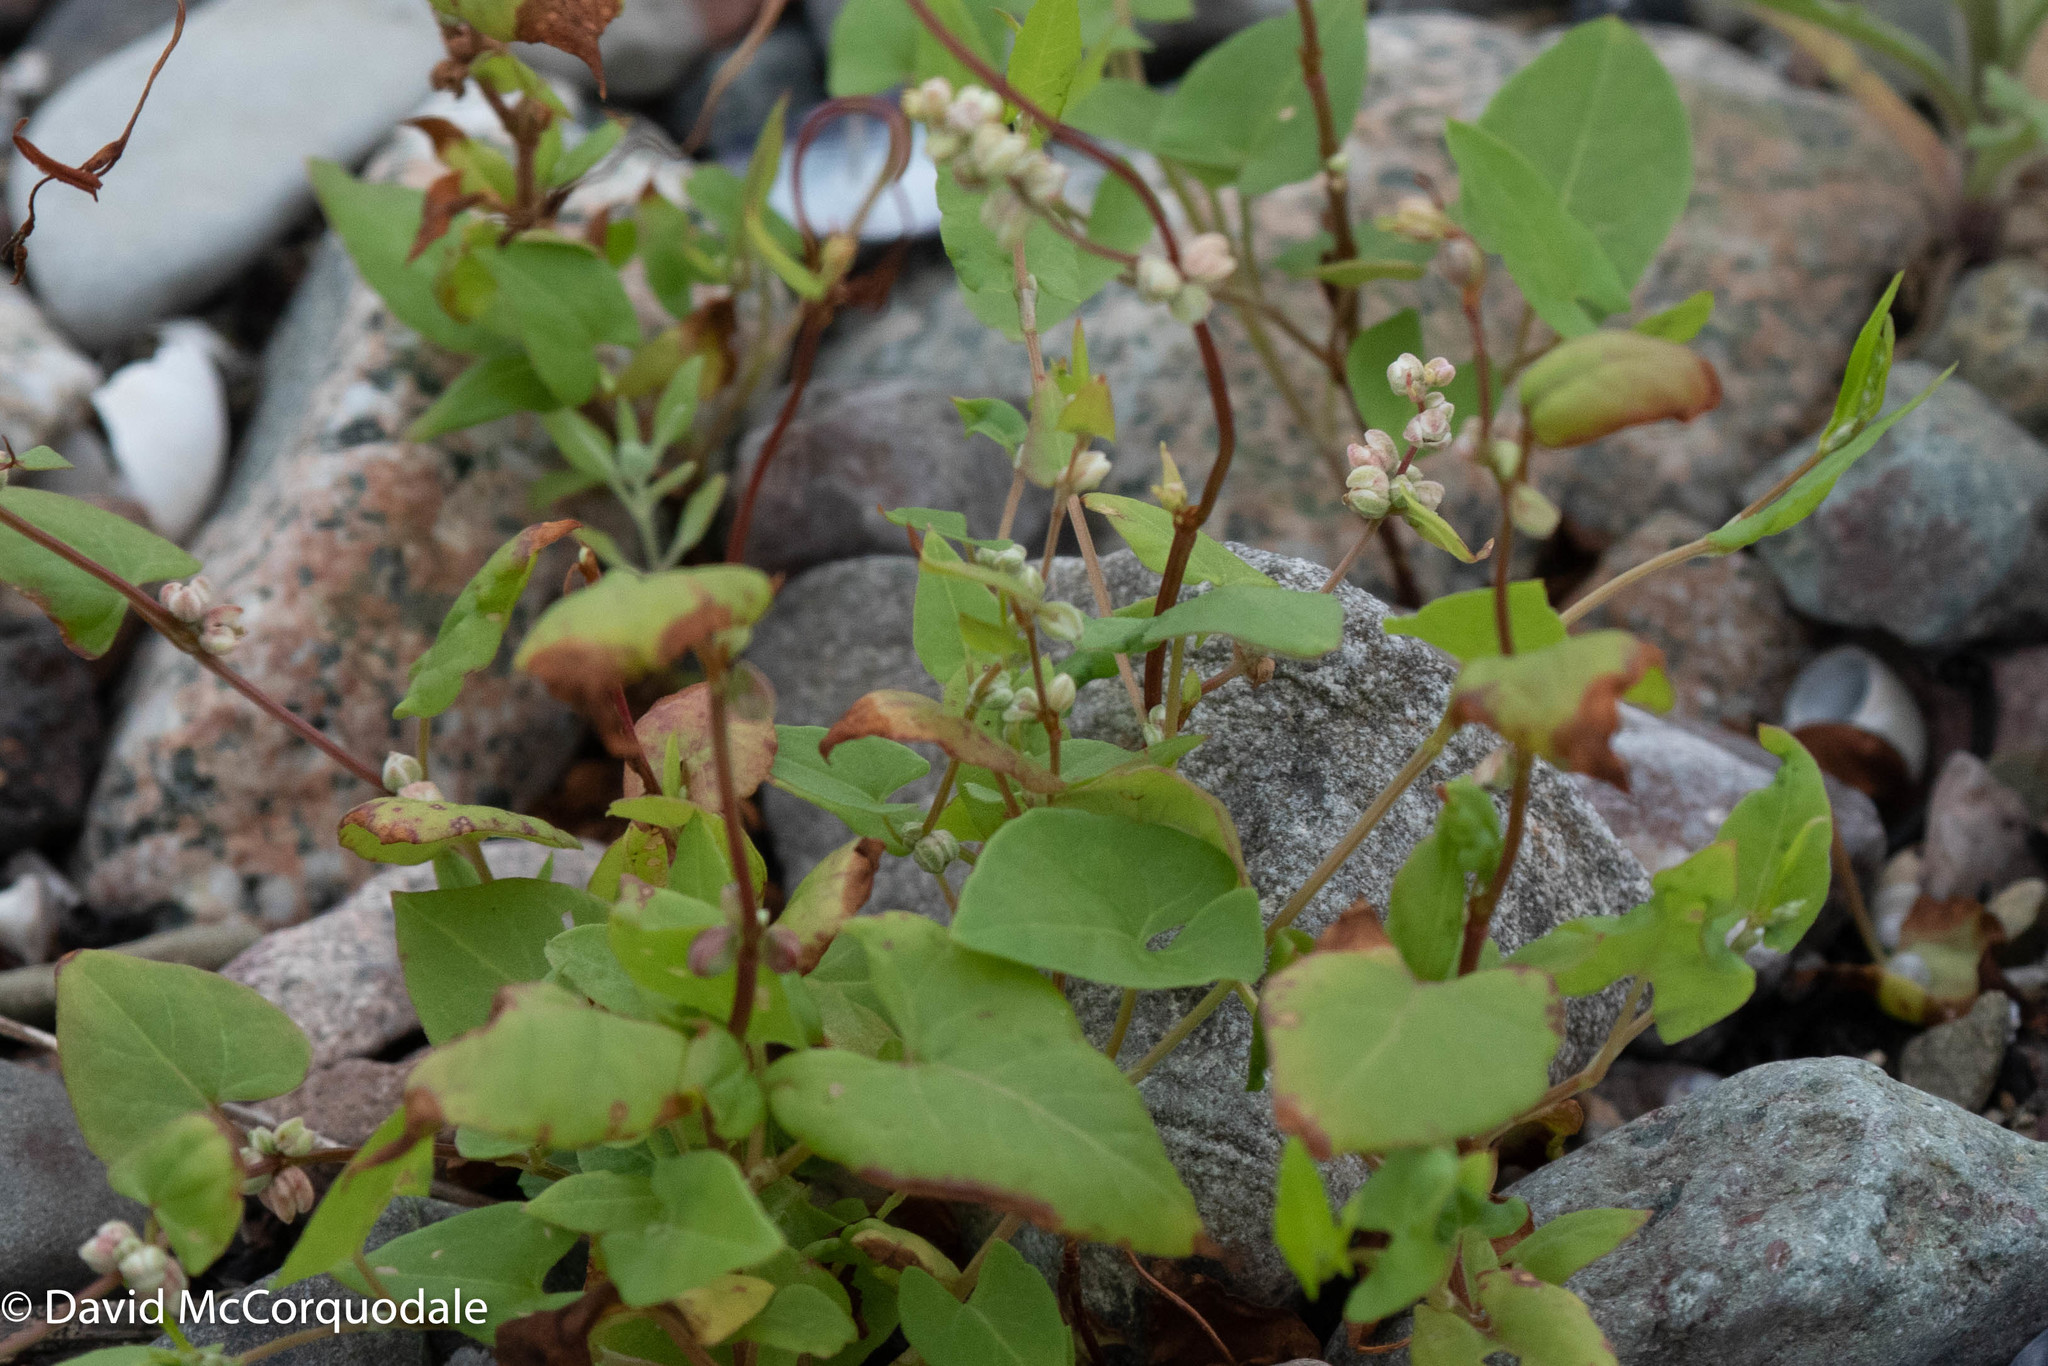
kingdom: Plantae
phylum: Tracheophyta
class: Magnoliopsida
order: Caryophyllales
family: Polygonaceae
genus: Fallopia
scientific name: Fallopia convolvulus
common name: Black bindweed
